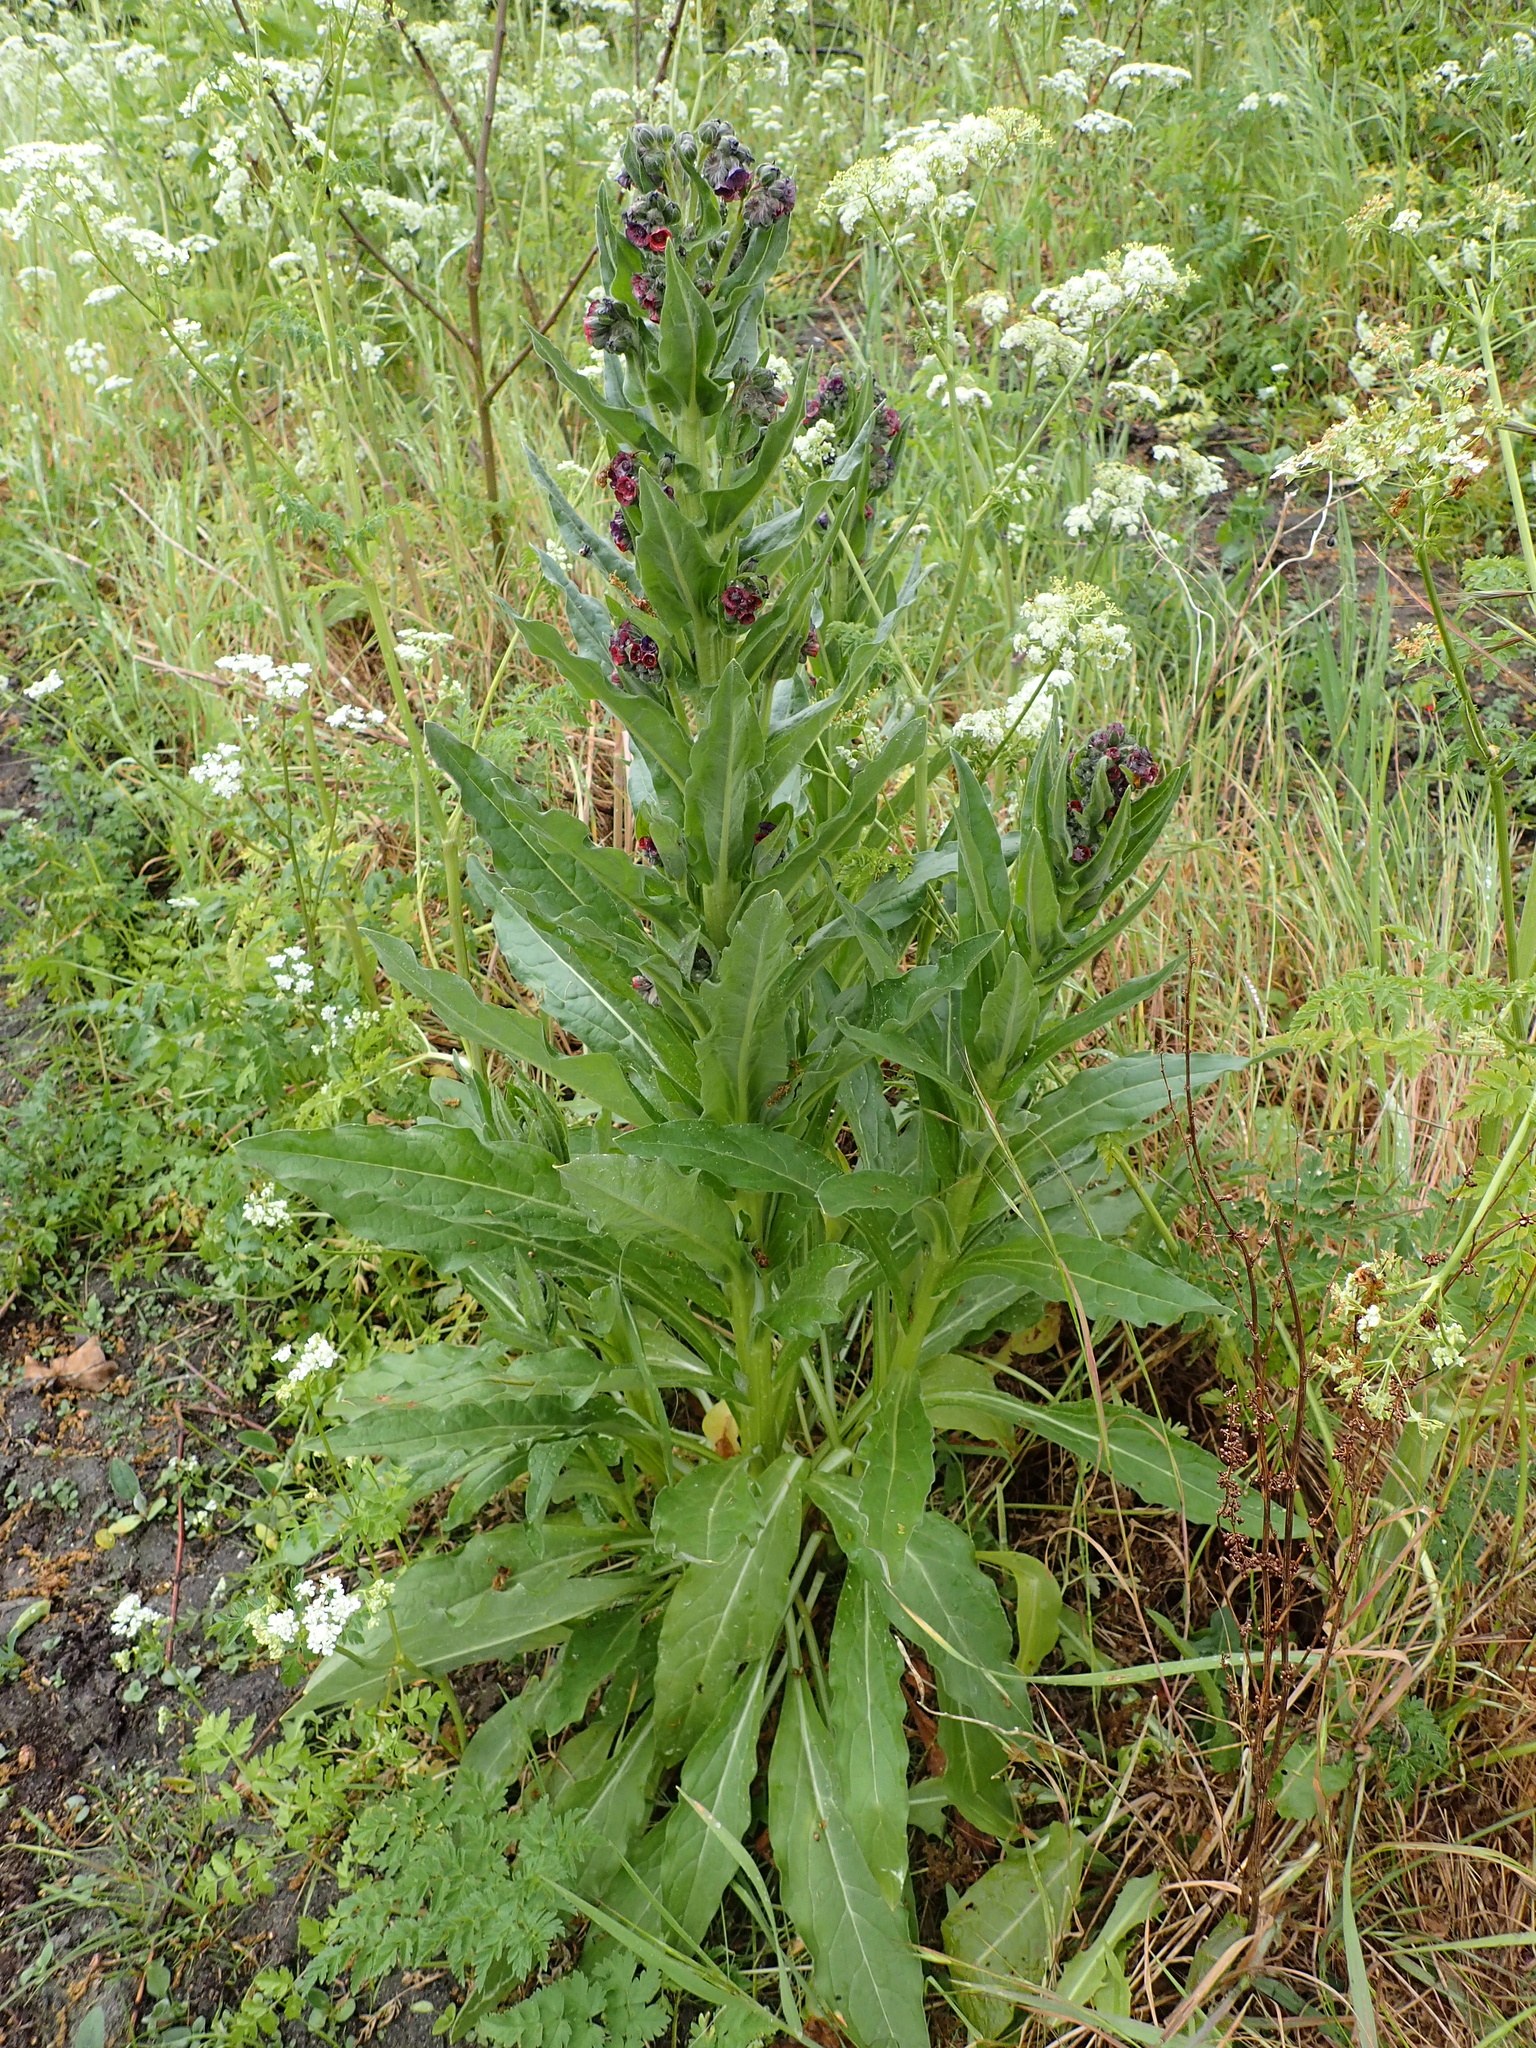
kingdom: Plantae
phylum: Tracheophyta
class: Magnoliopsida
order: Boraginales
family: Boraginaceae
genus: Cynoglossum
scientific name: Cynoglossum officinale
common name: Hound's-tongue
